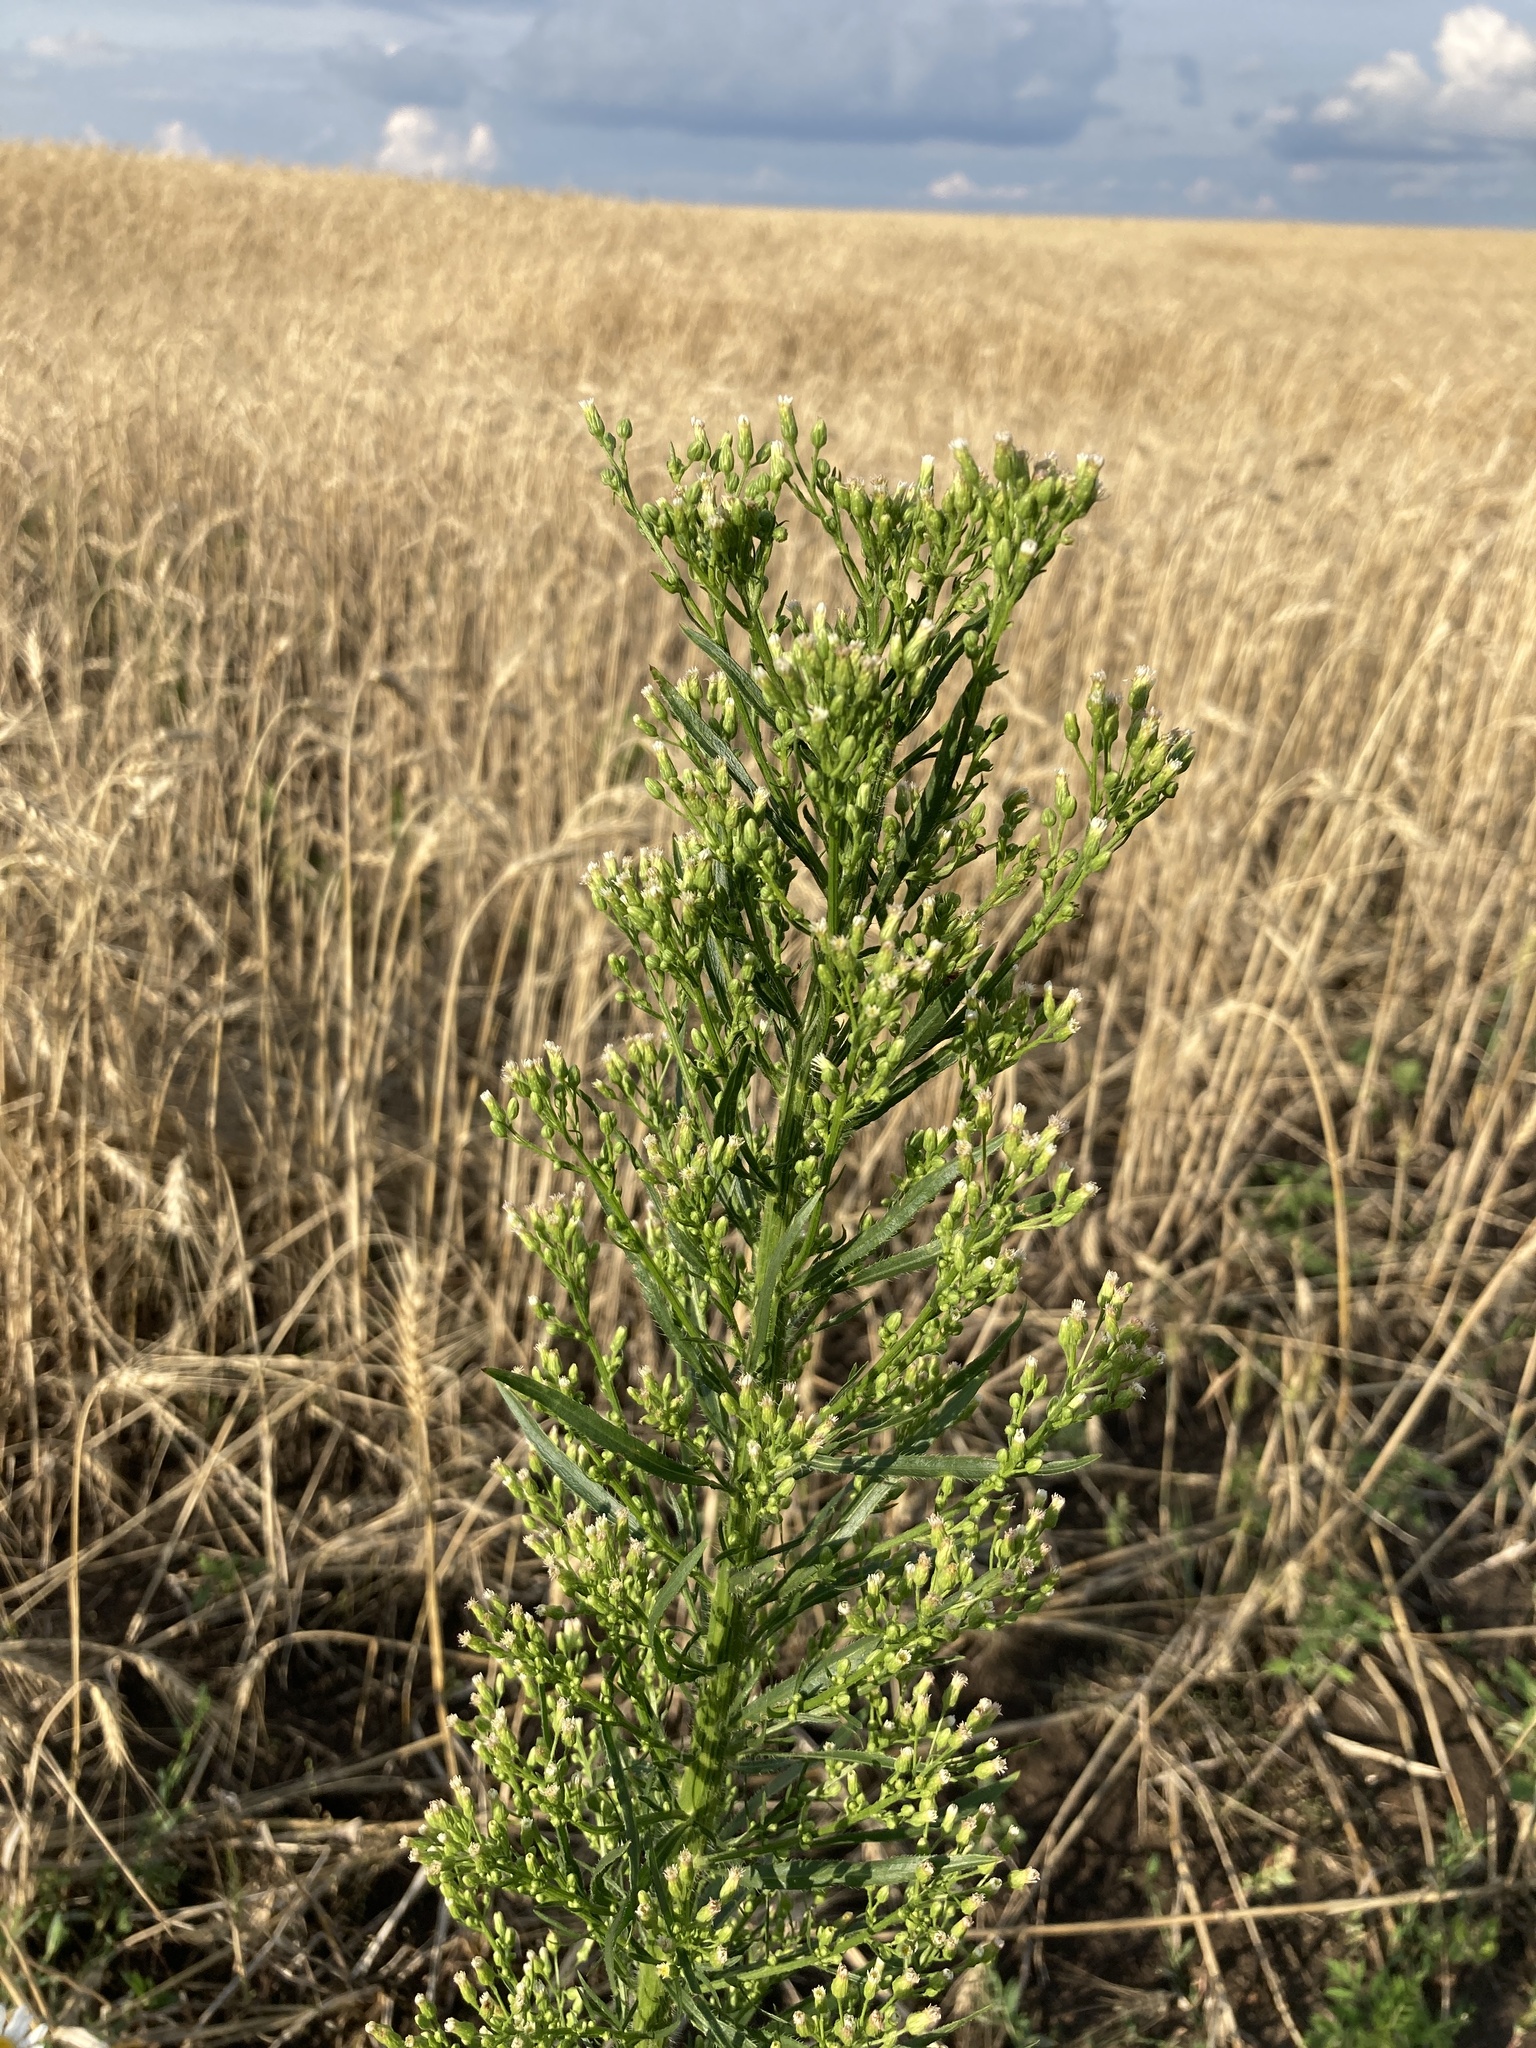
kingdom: Plantae
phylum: Tracheophyta
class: Magnoliopsida
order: Asterales
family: Asteraceae
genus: Erigeron
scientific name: Erigeron canadensis
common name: Canadian fleabane
